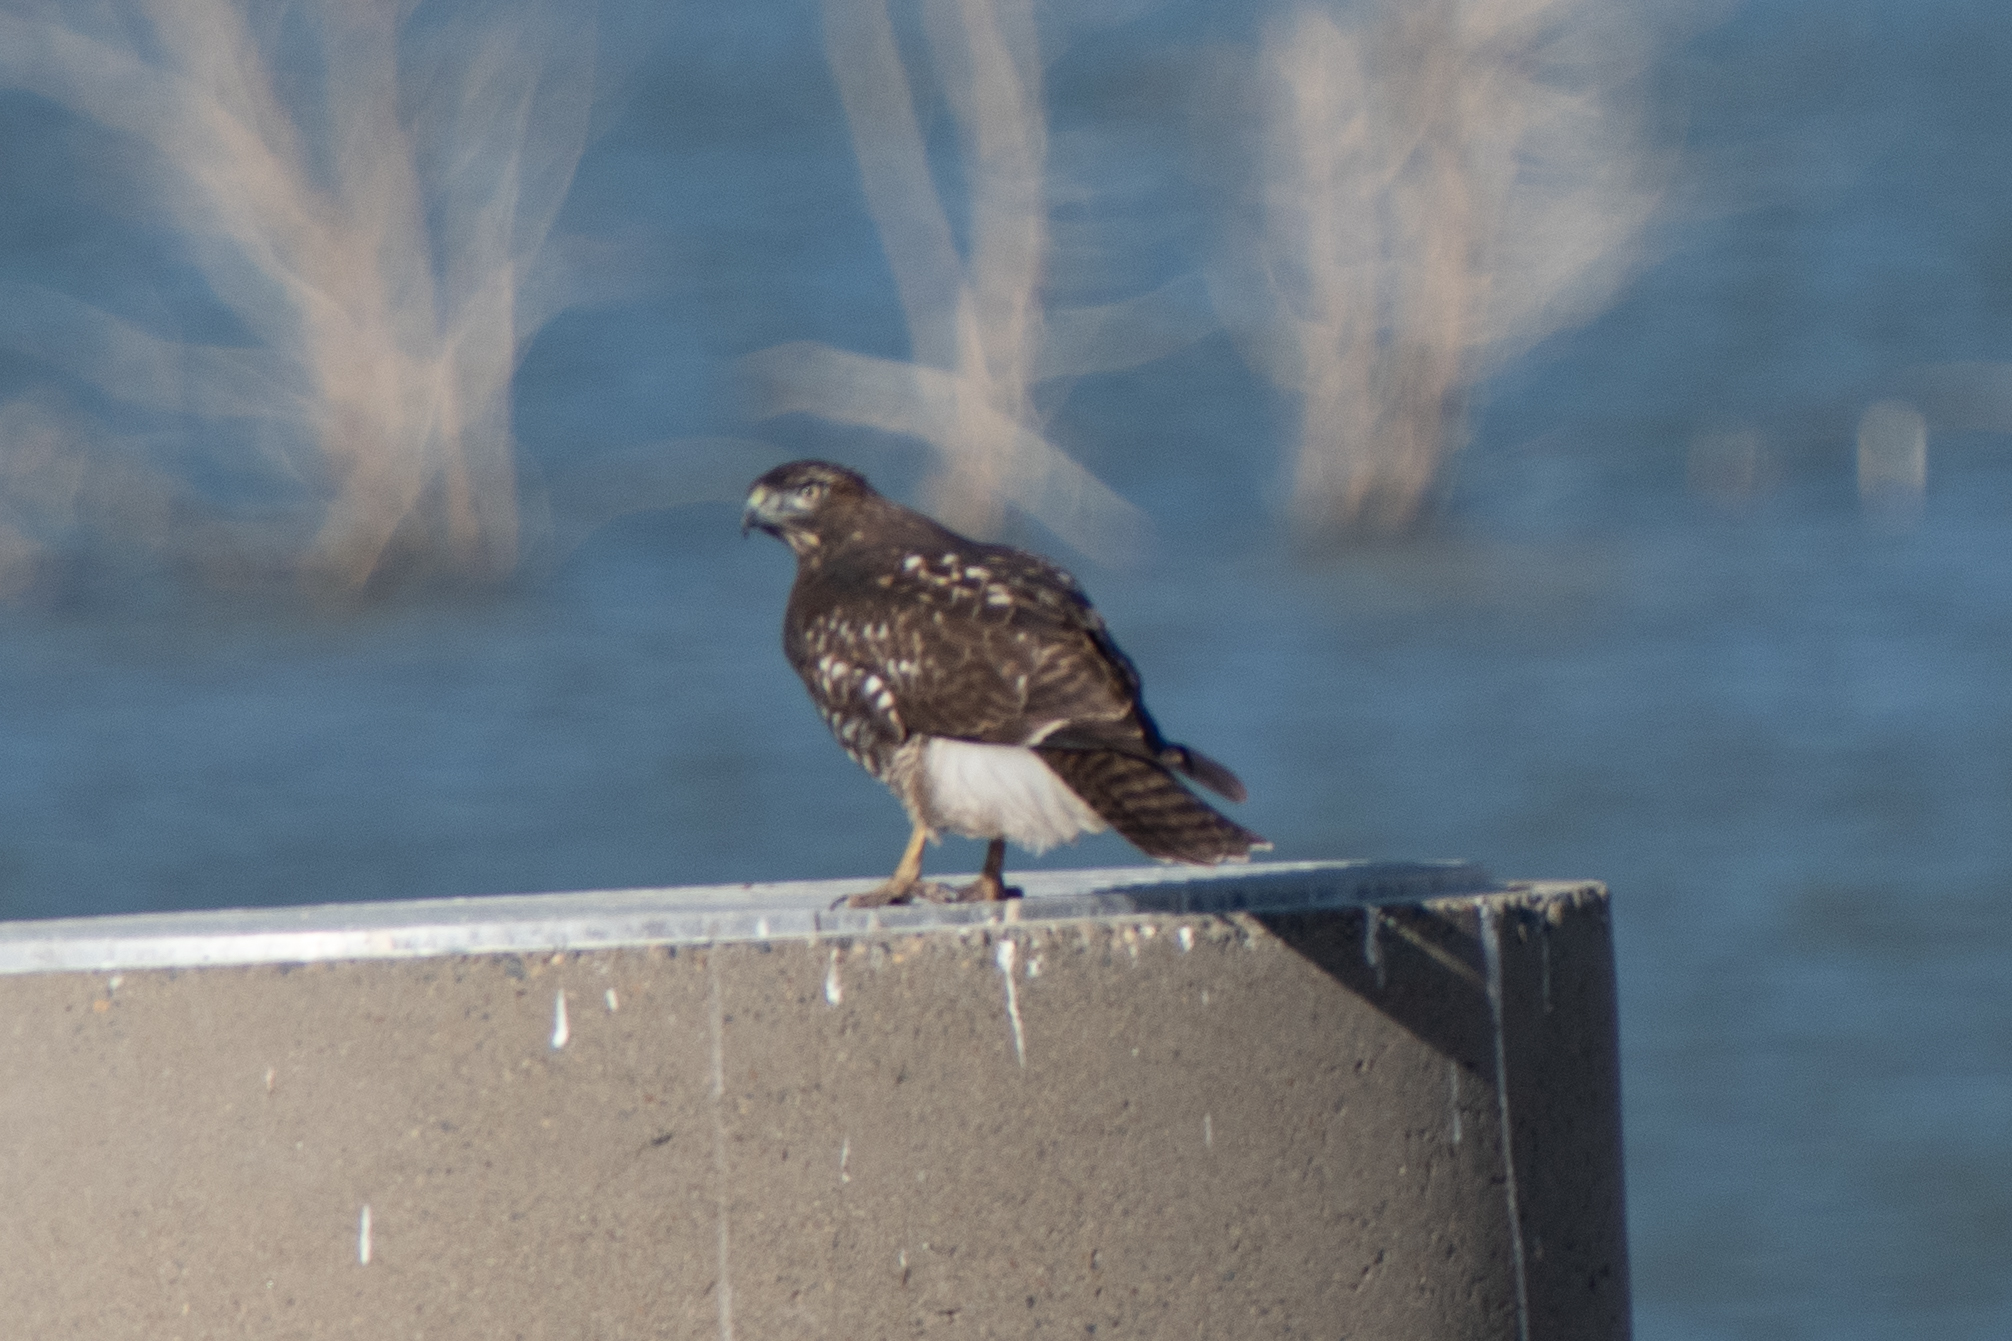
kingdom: Animalia
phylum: Chordata
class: Aves
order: Accipitriformes
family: Accipitridae
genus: Buteo
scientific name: Buteo jamaicensis
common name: Red-tailed hawk
